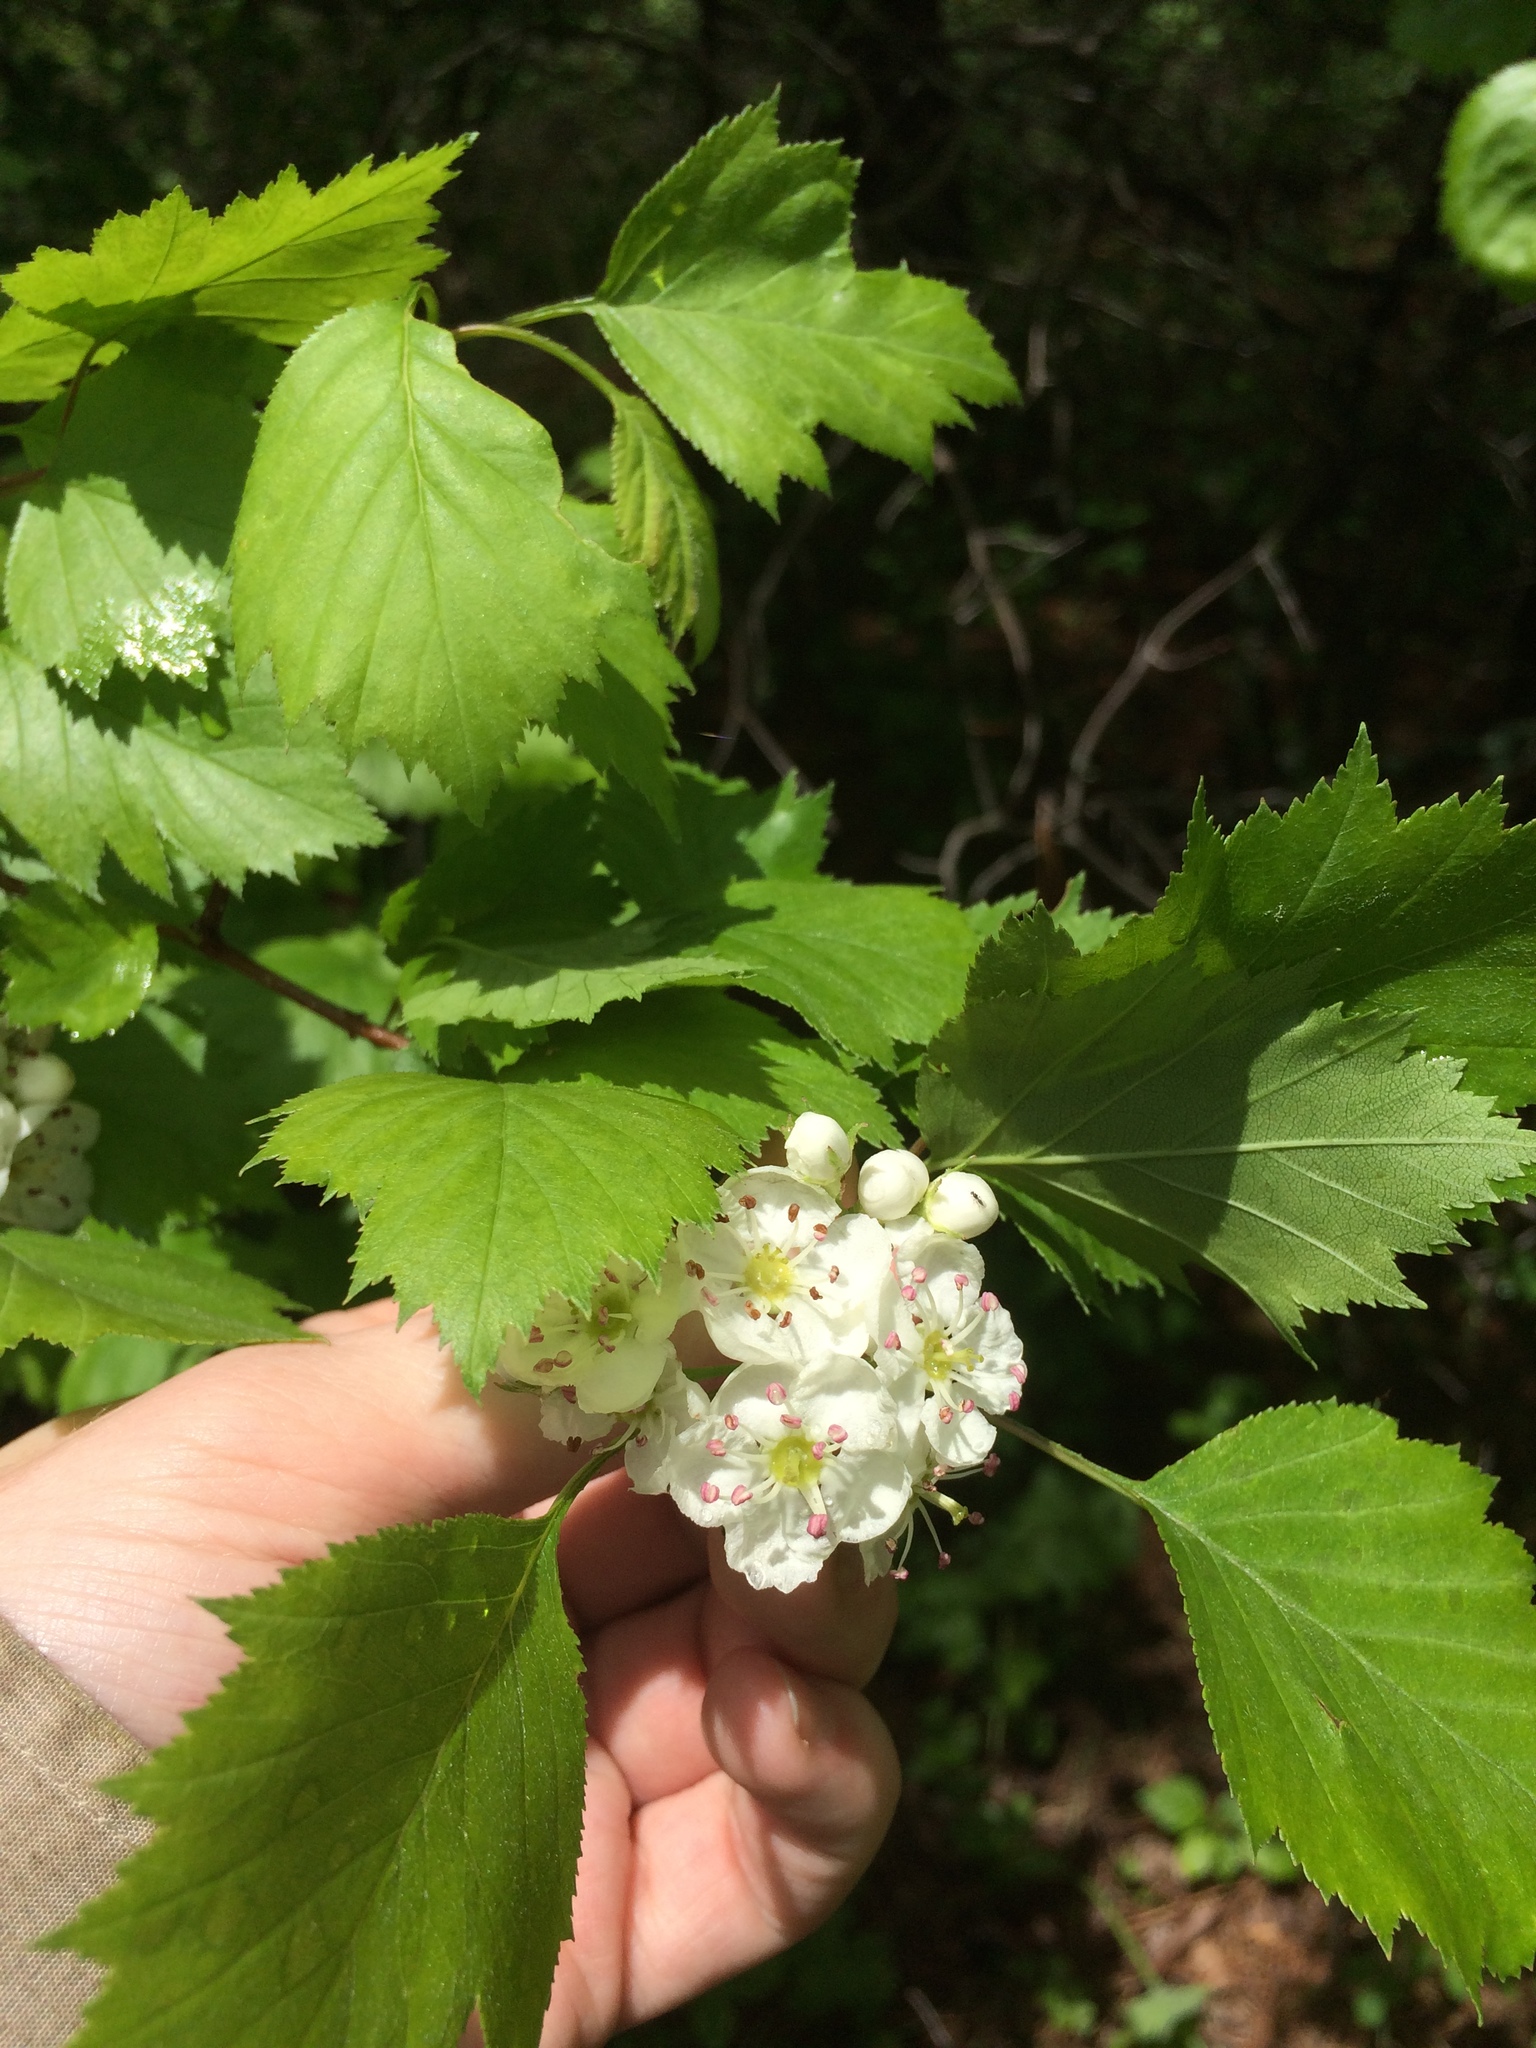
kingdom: Plantae
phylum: Tracheophyta
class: Magnoliopsida
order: Rosales
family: Rosaceae
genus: Crataegus
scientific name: Crataegus flabellata
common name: Bosc's hawthorn
